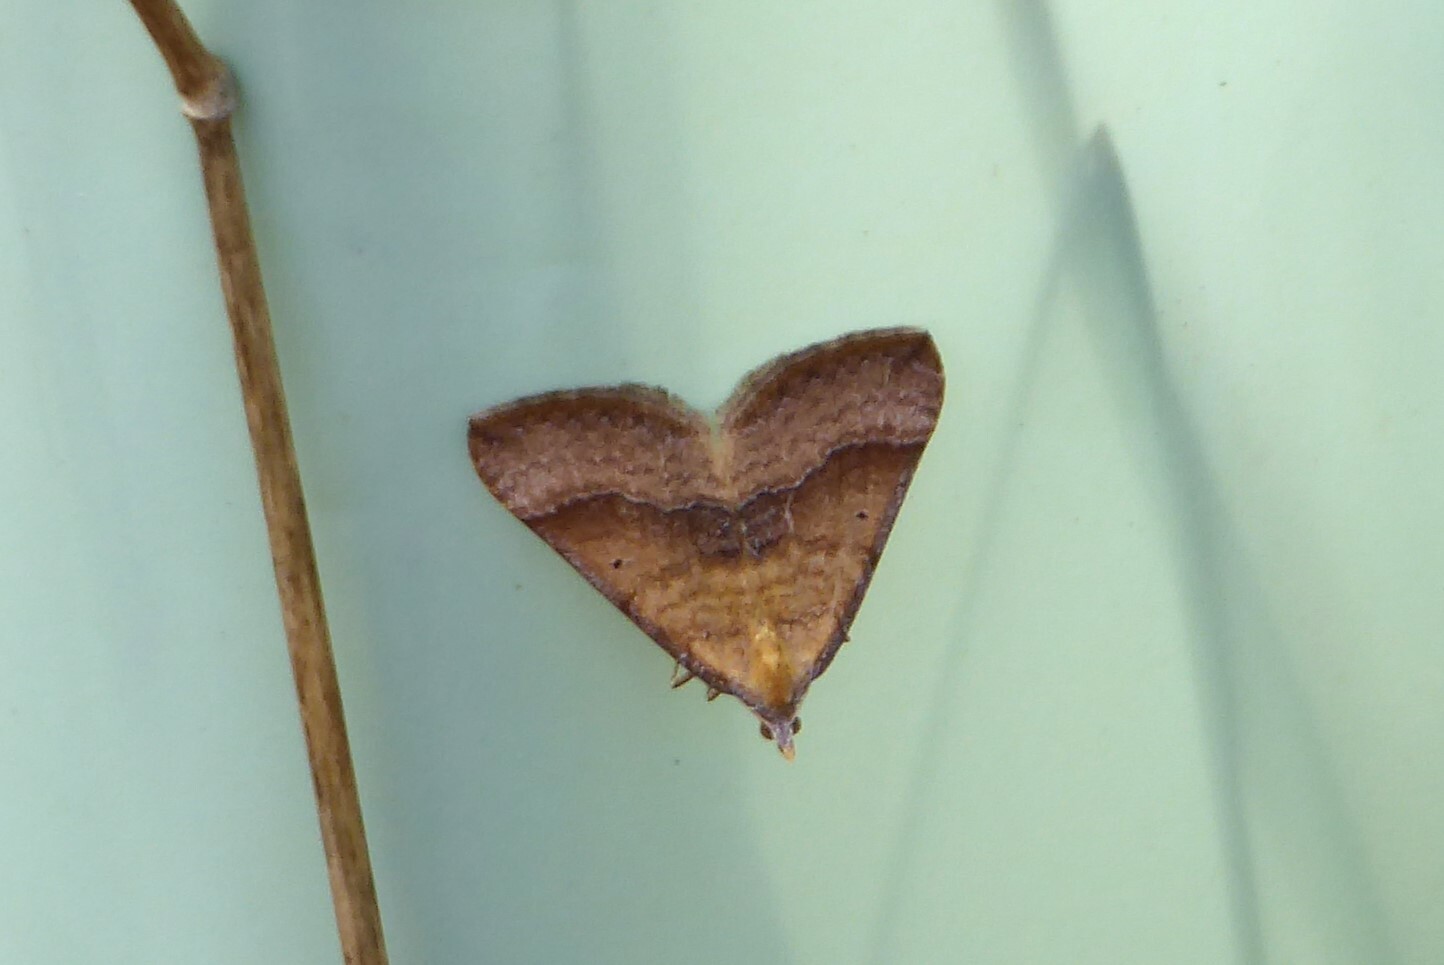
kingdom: Animalia
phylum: Arthropoda
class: Insecta
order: Lepidoptera
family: Geometridae
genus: Anachloris
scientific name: Anachloris subochraria
